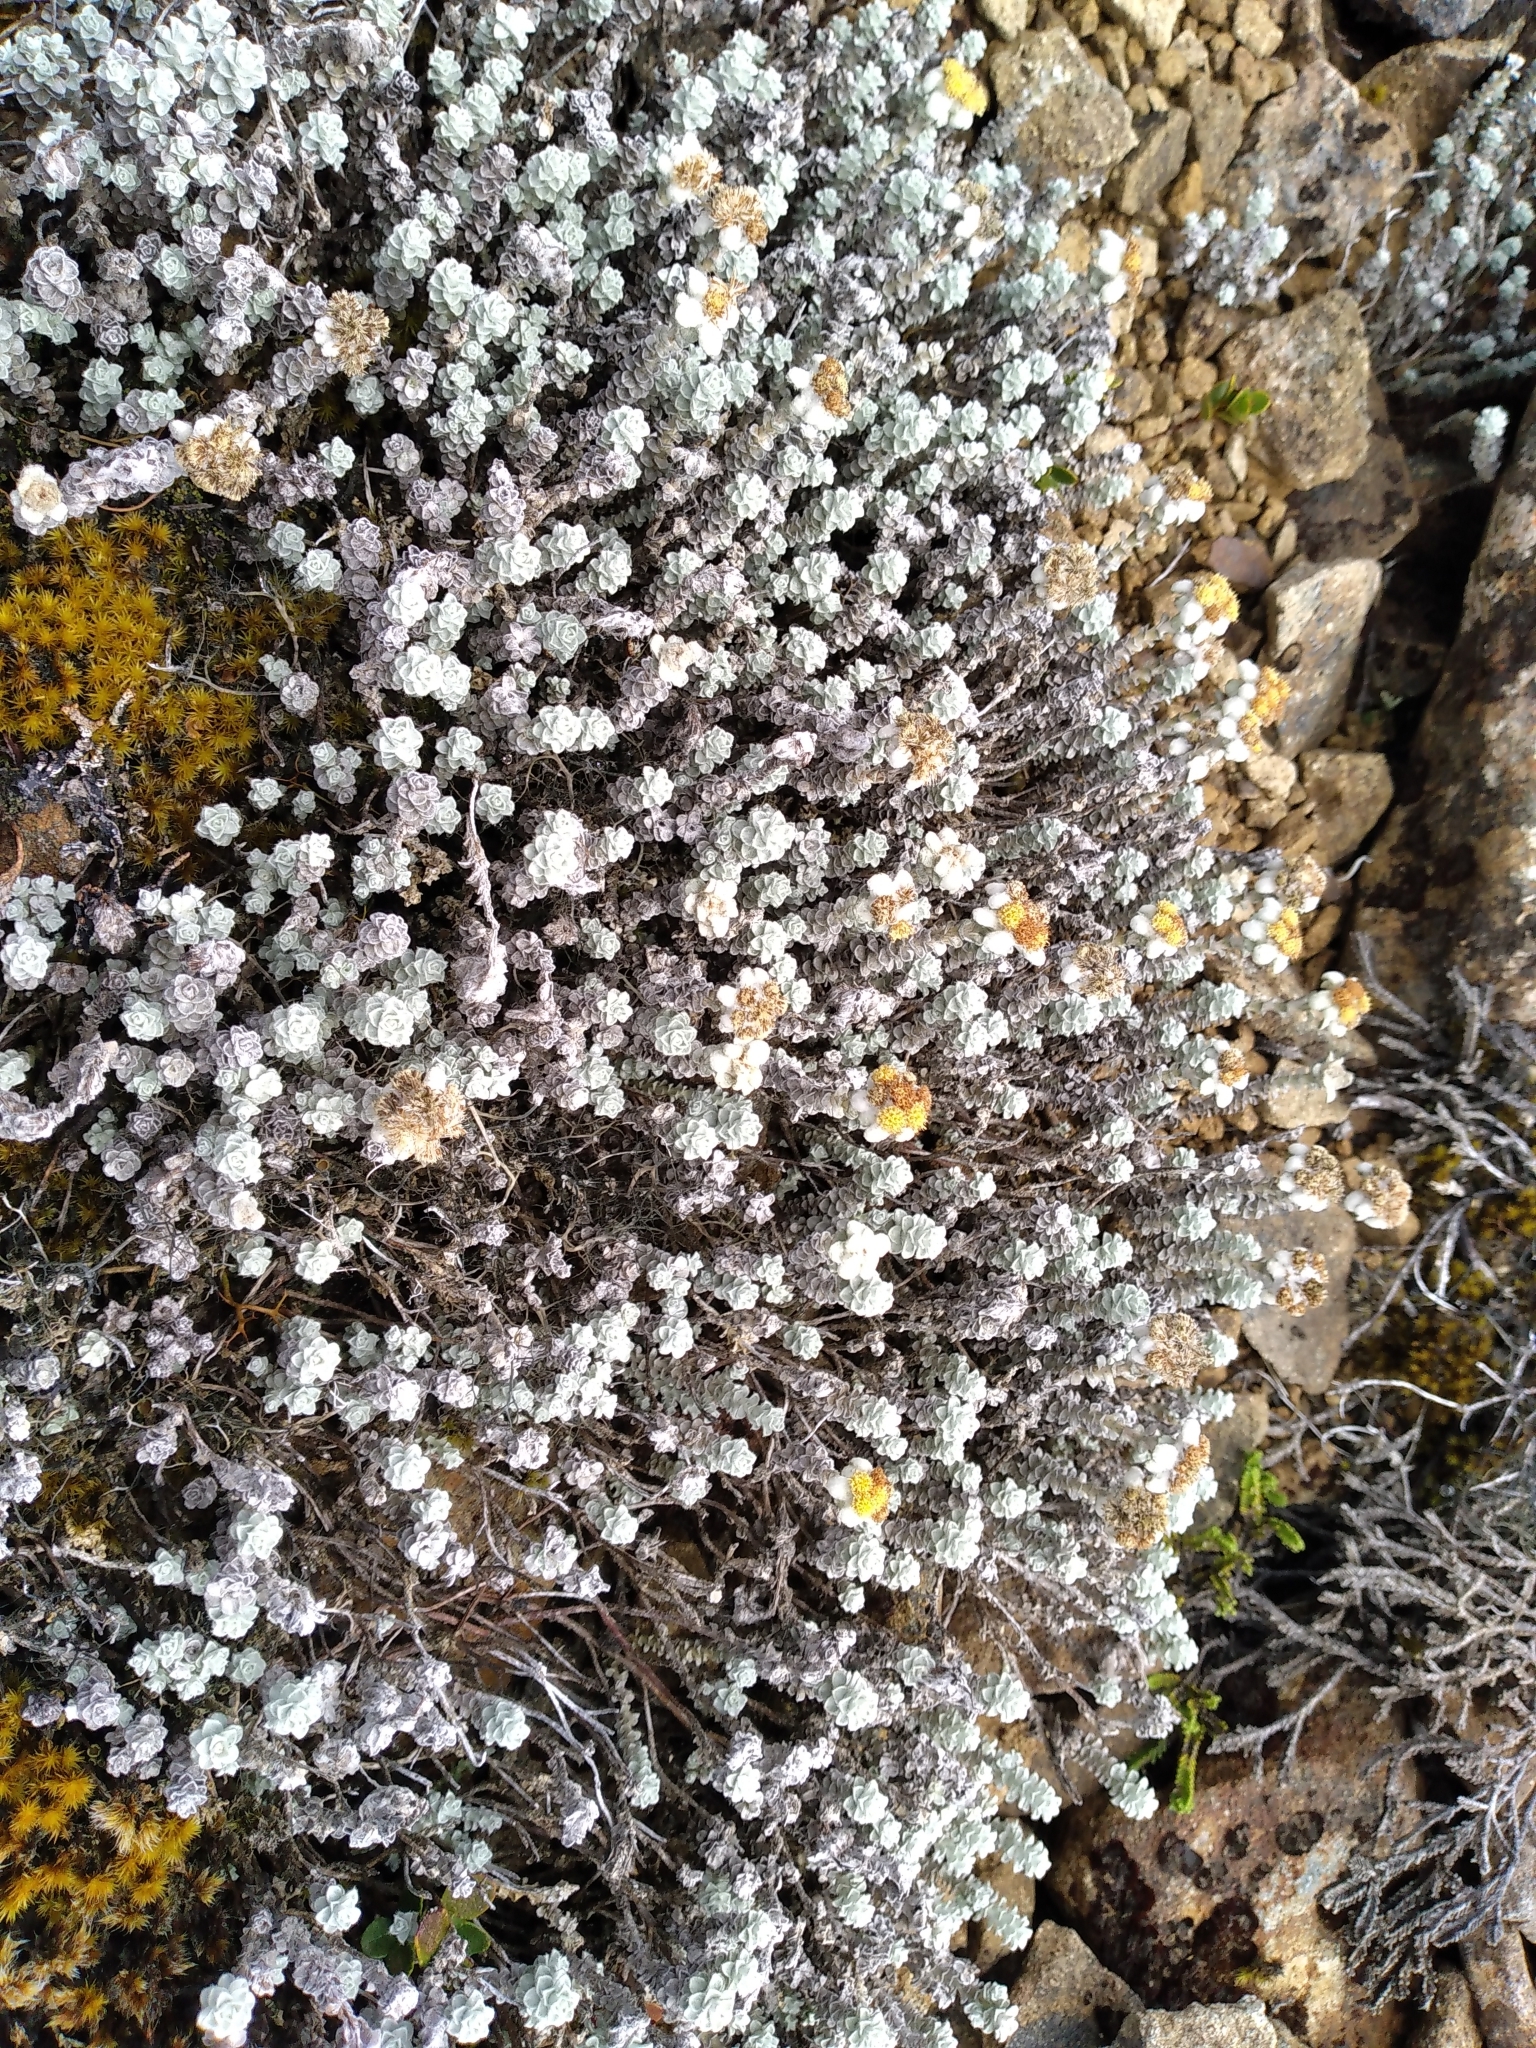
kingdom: Plantae
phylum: Tracheophyta
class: Magnoliopsida
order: Asterales
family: Asteraceae
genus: Leucogenes
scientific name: Leucogenes grandiceps
